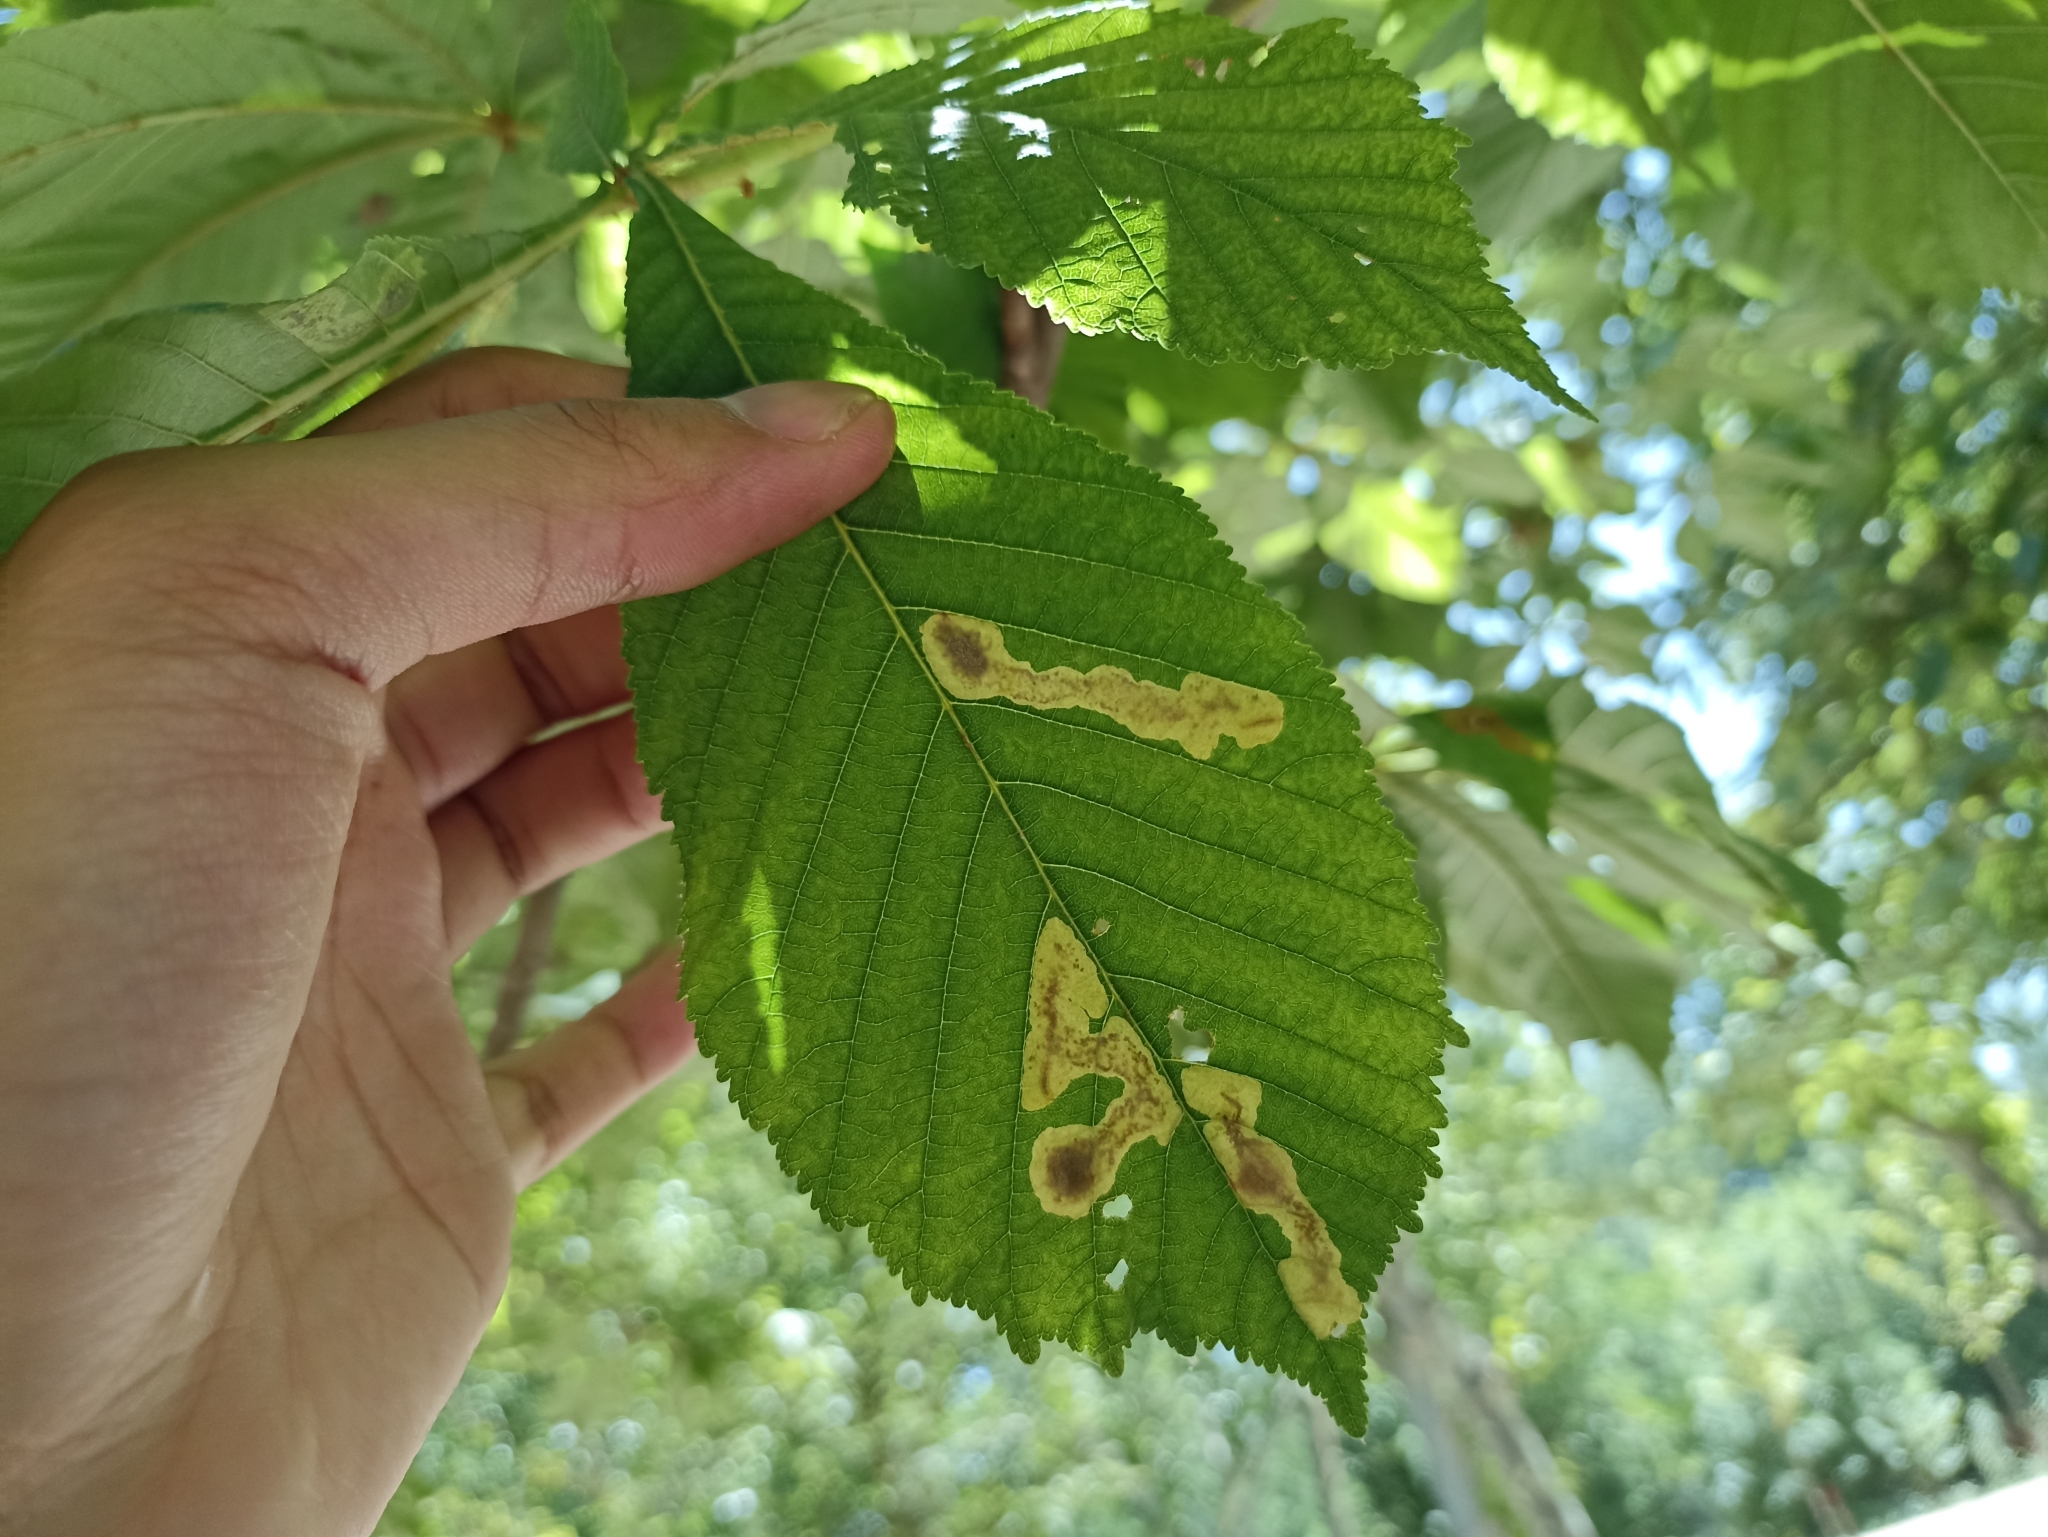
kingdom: Animalia
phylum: Arthropoda
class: Insecta
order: Lepidoptera
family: Gracillariidae
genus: Cameraria
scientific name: Cameraria ohridella
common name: Horse-chestnut leaf-miner
